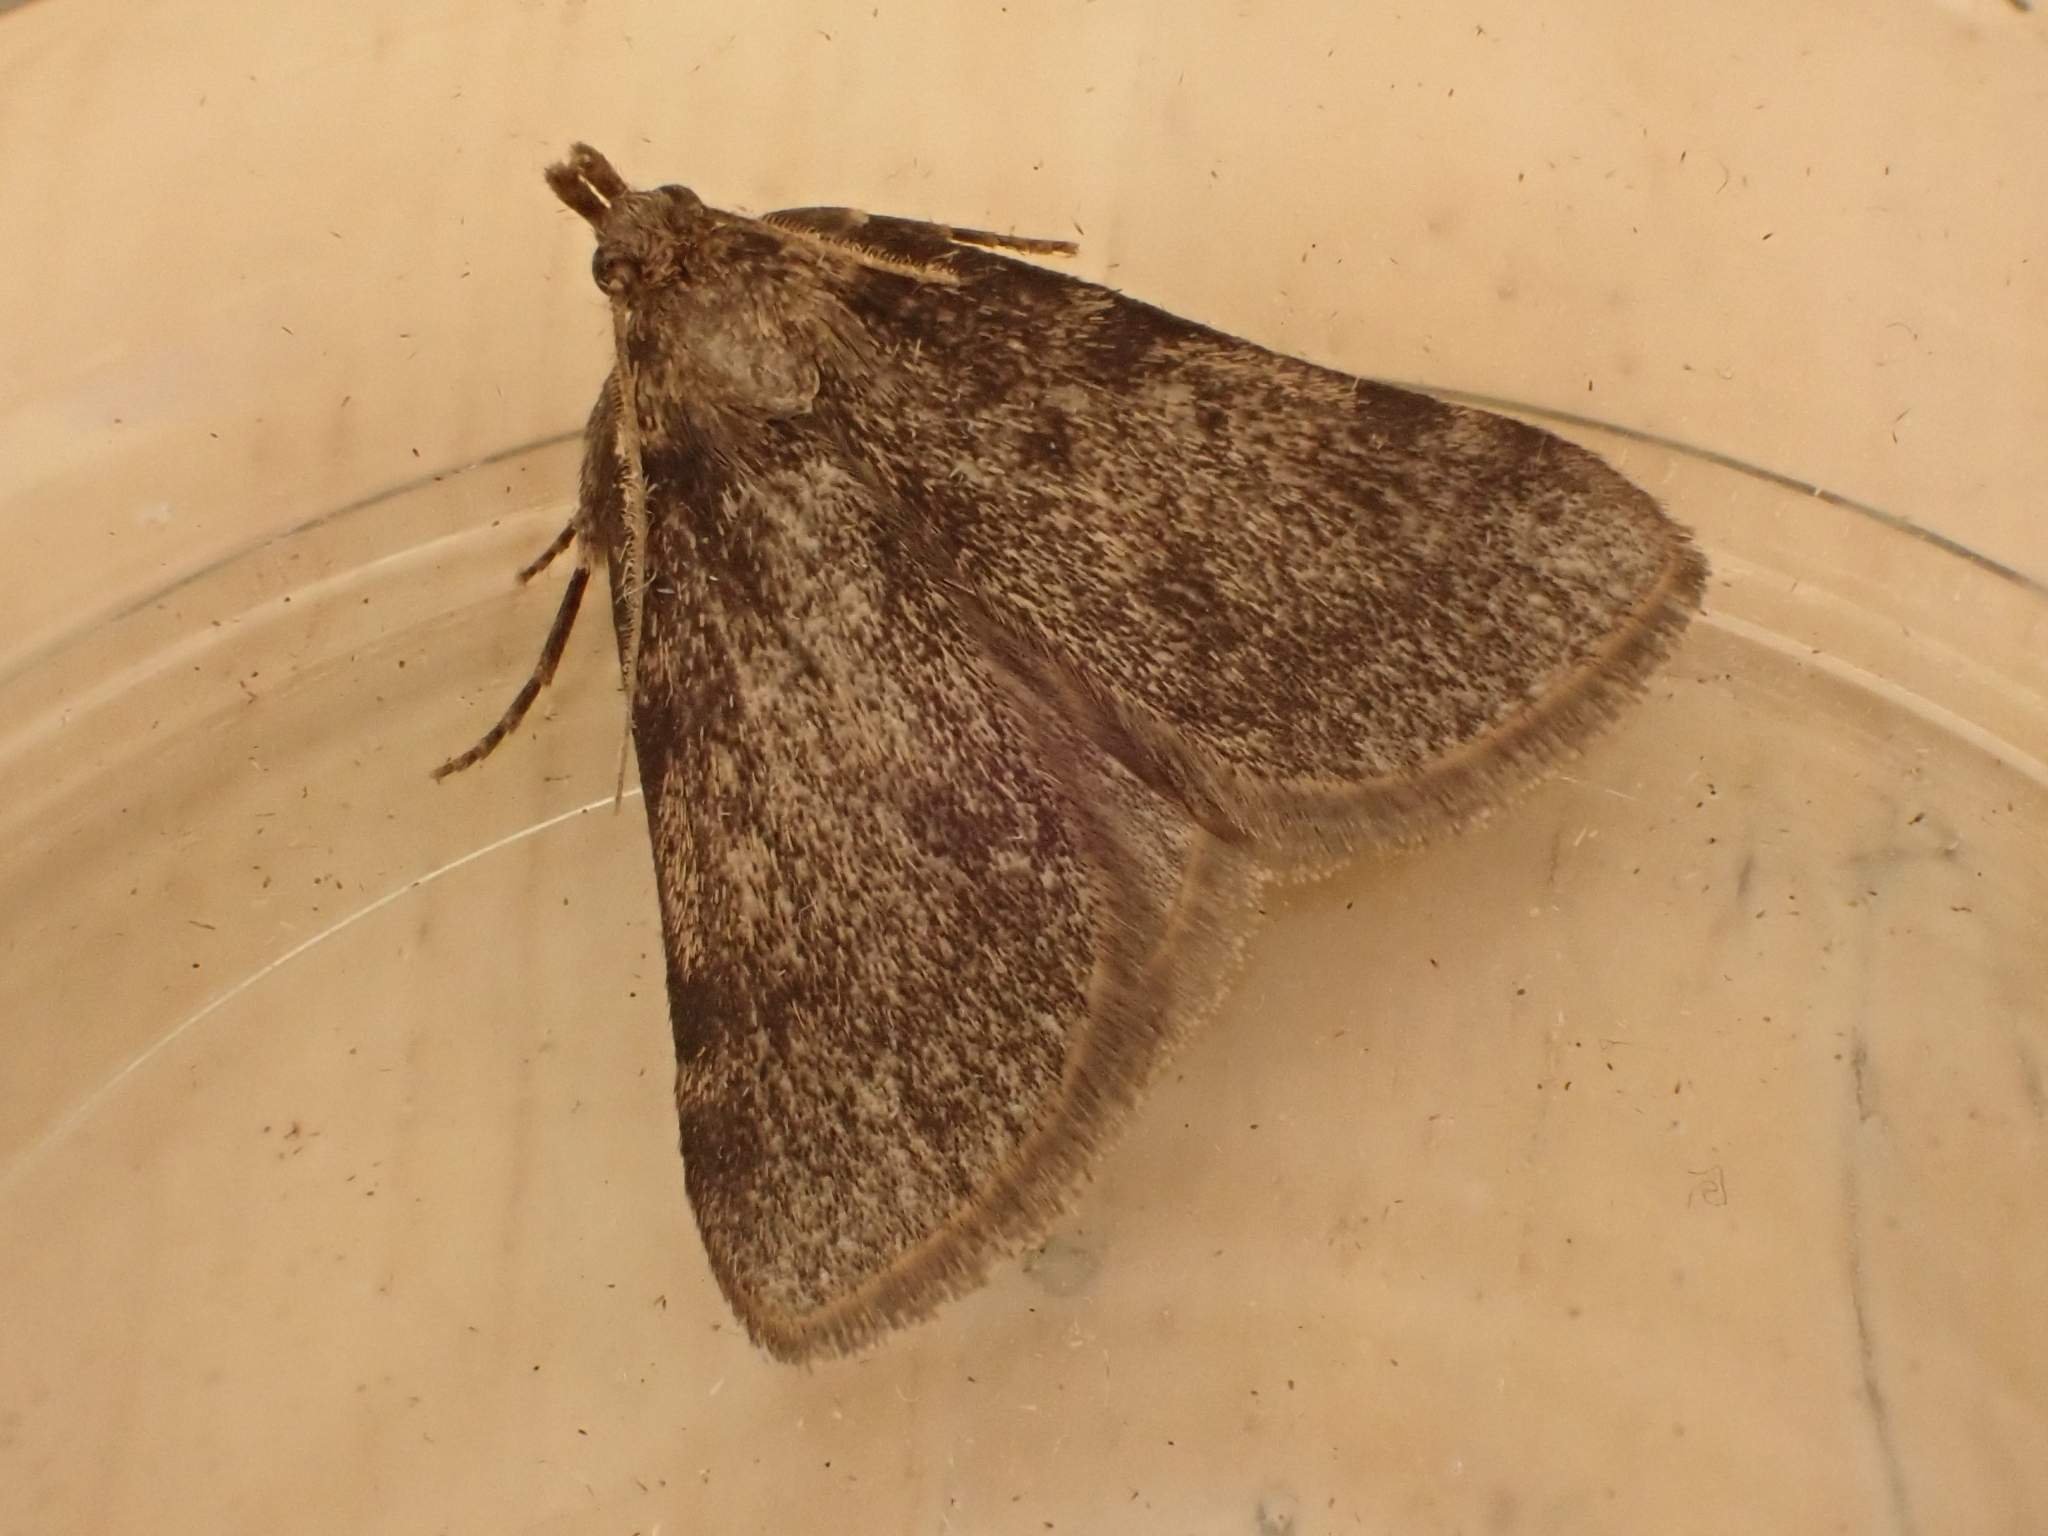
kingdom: Animalia
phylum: Arthropoda
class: Insecta
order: Lepidoptera
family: Pyralidae
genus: Aglossa
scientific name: Aglossa pinguinalis
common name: Large tabby
